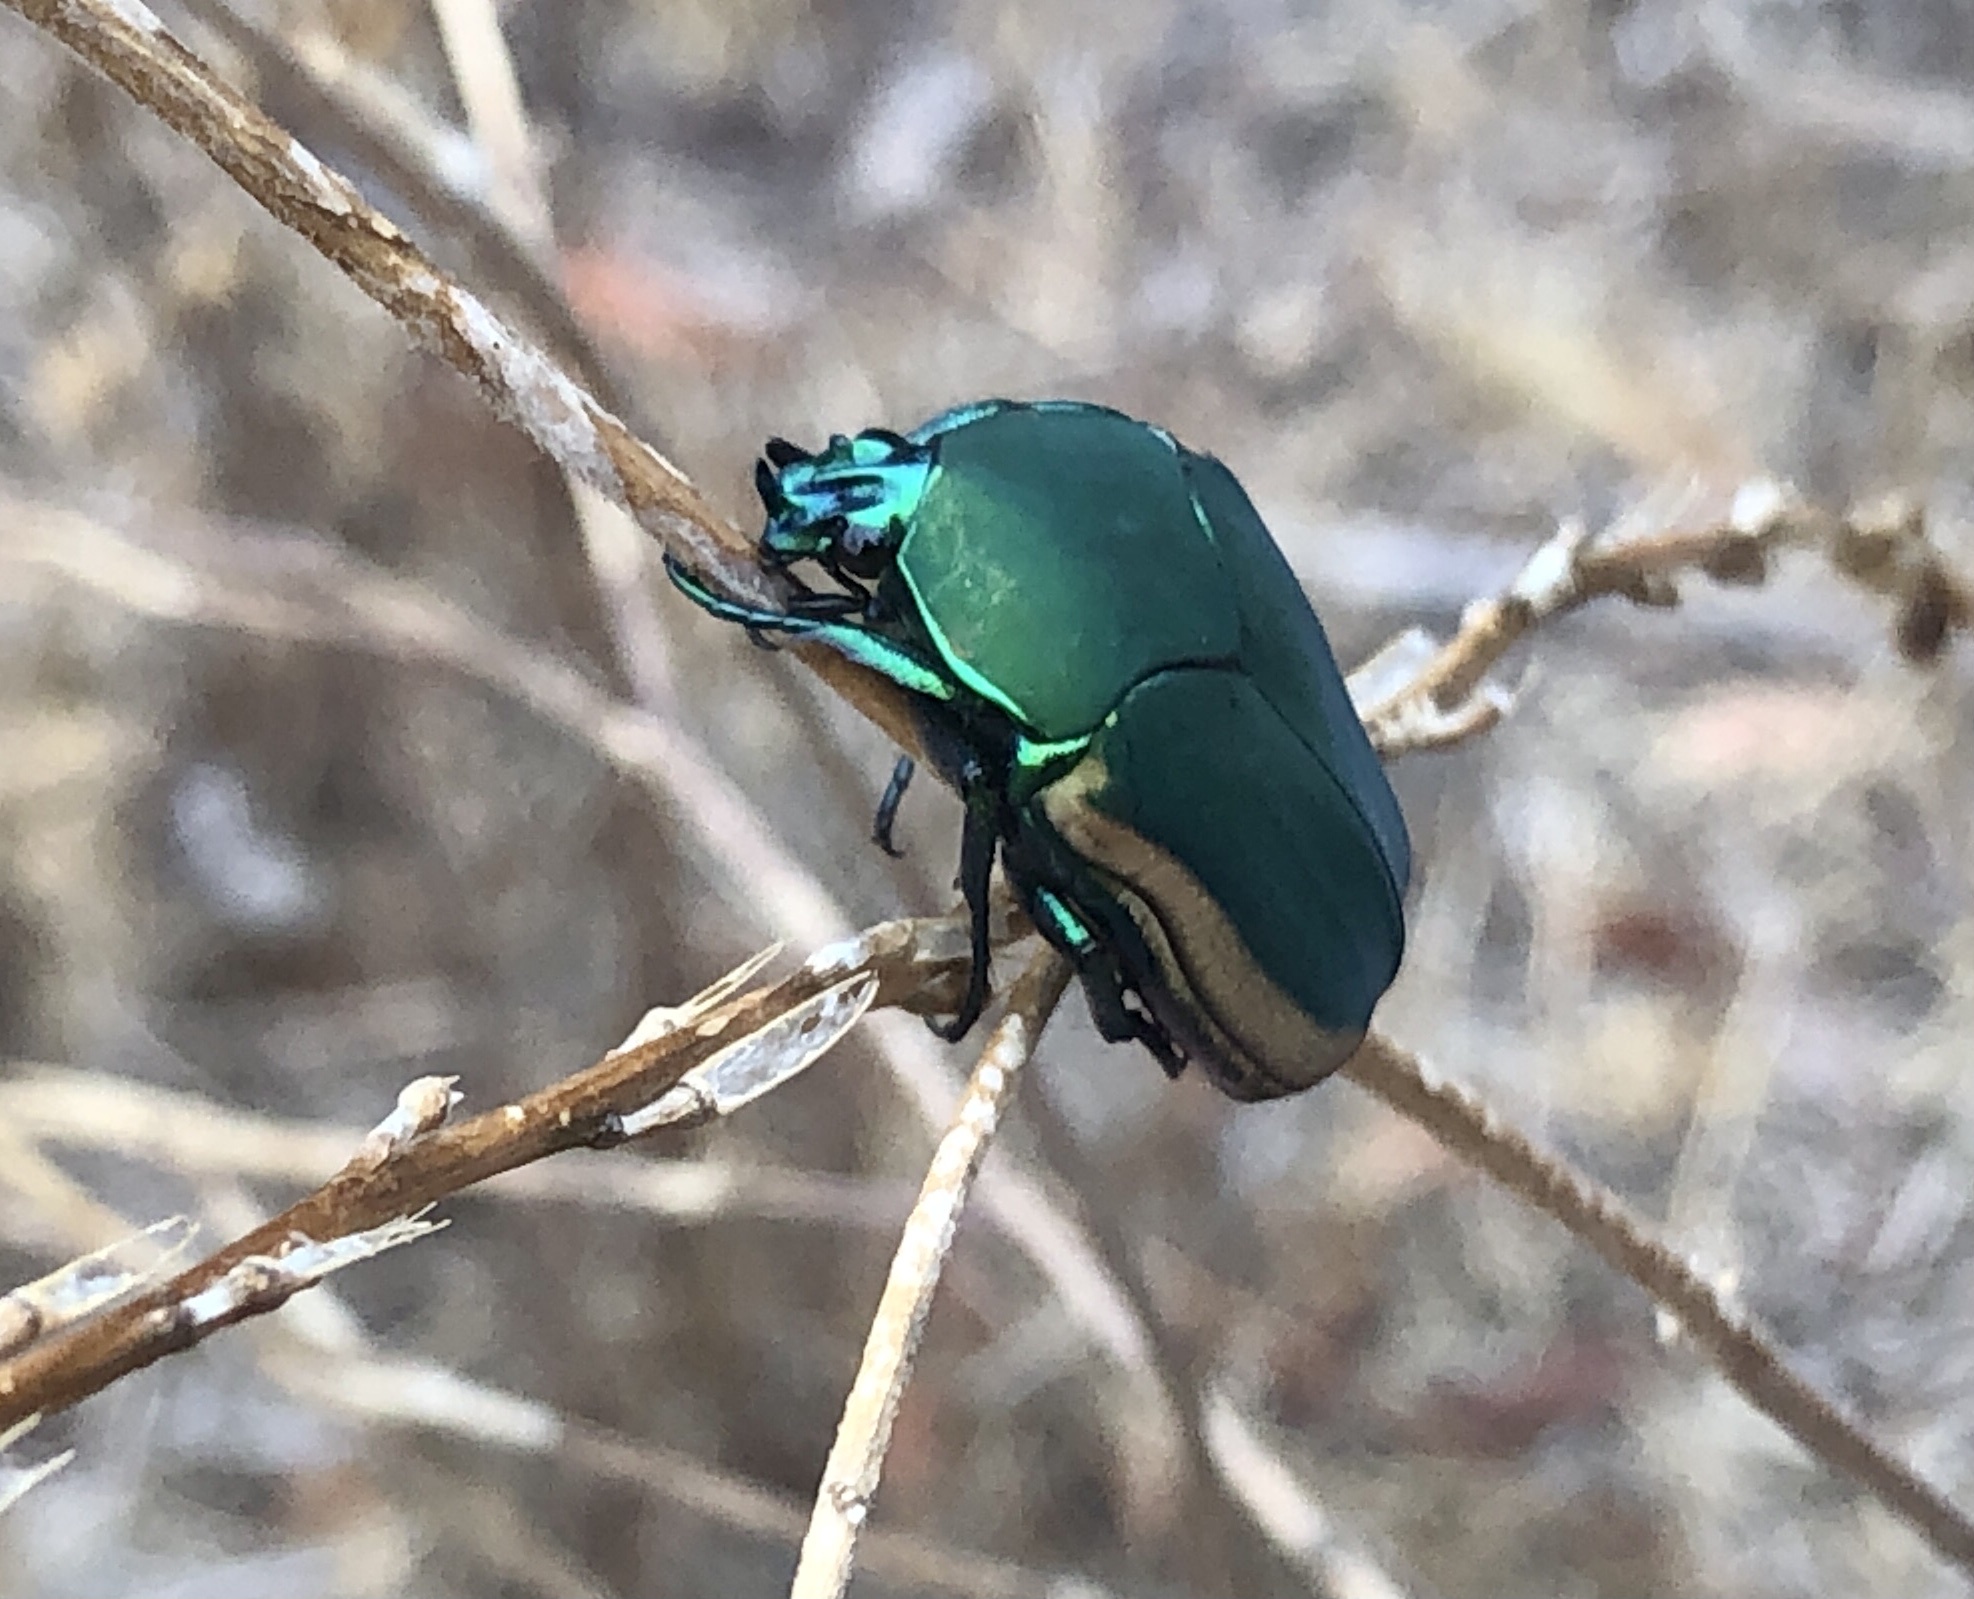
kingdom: Animalia
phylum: Arthropoda
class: Insecta
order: Coleoptera
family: Scarabaeidae
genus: Cotinis
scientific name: Cotinis mutabilis
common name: Figeater beetle
